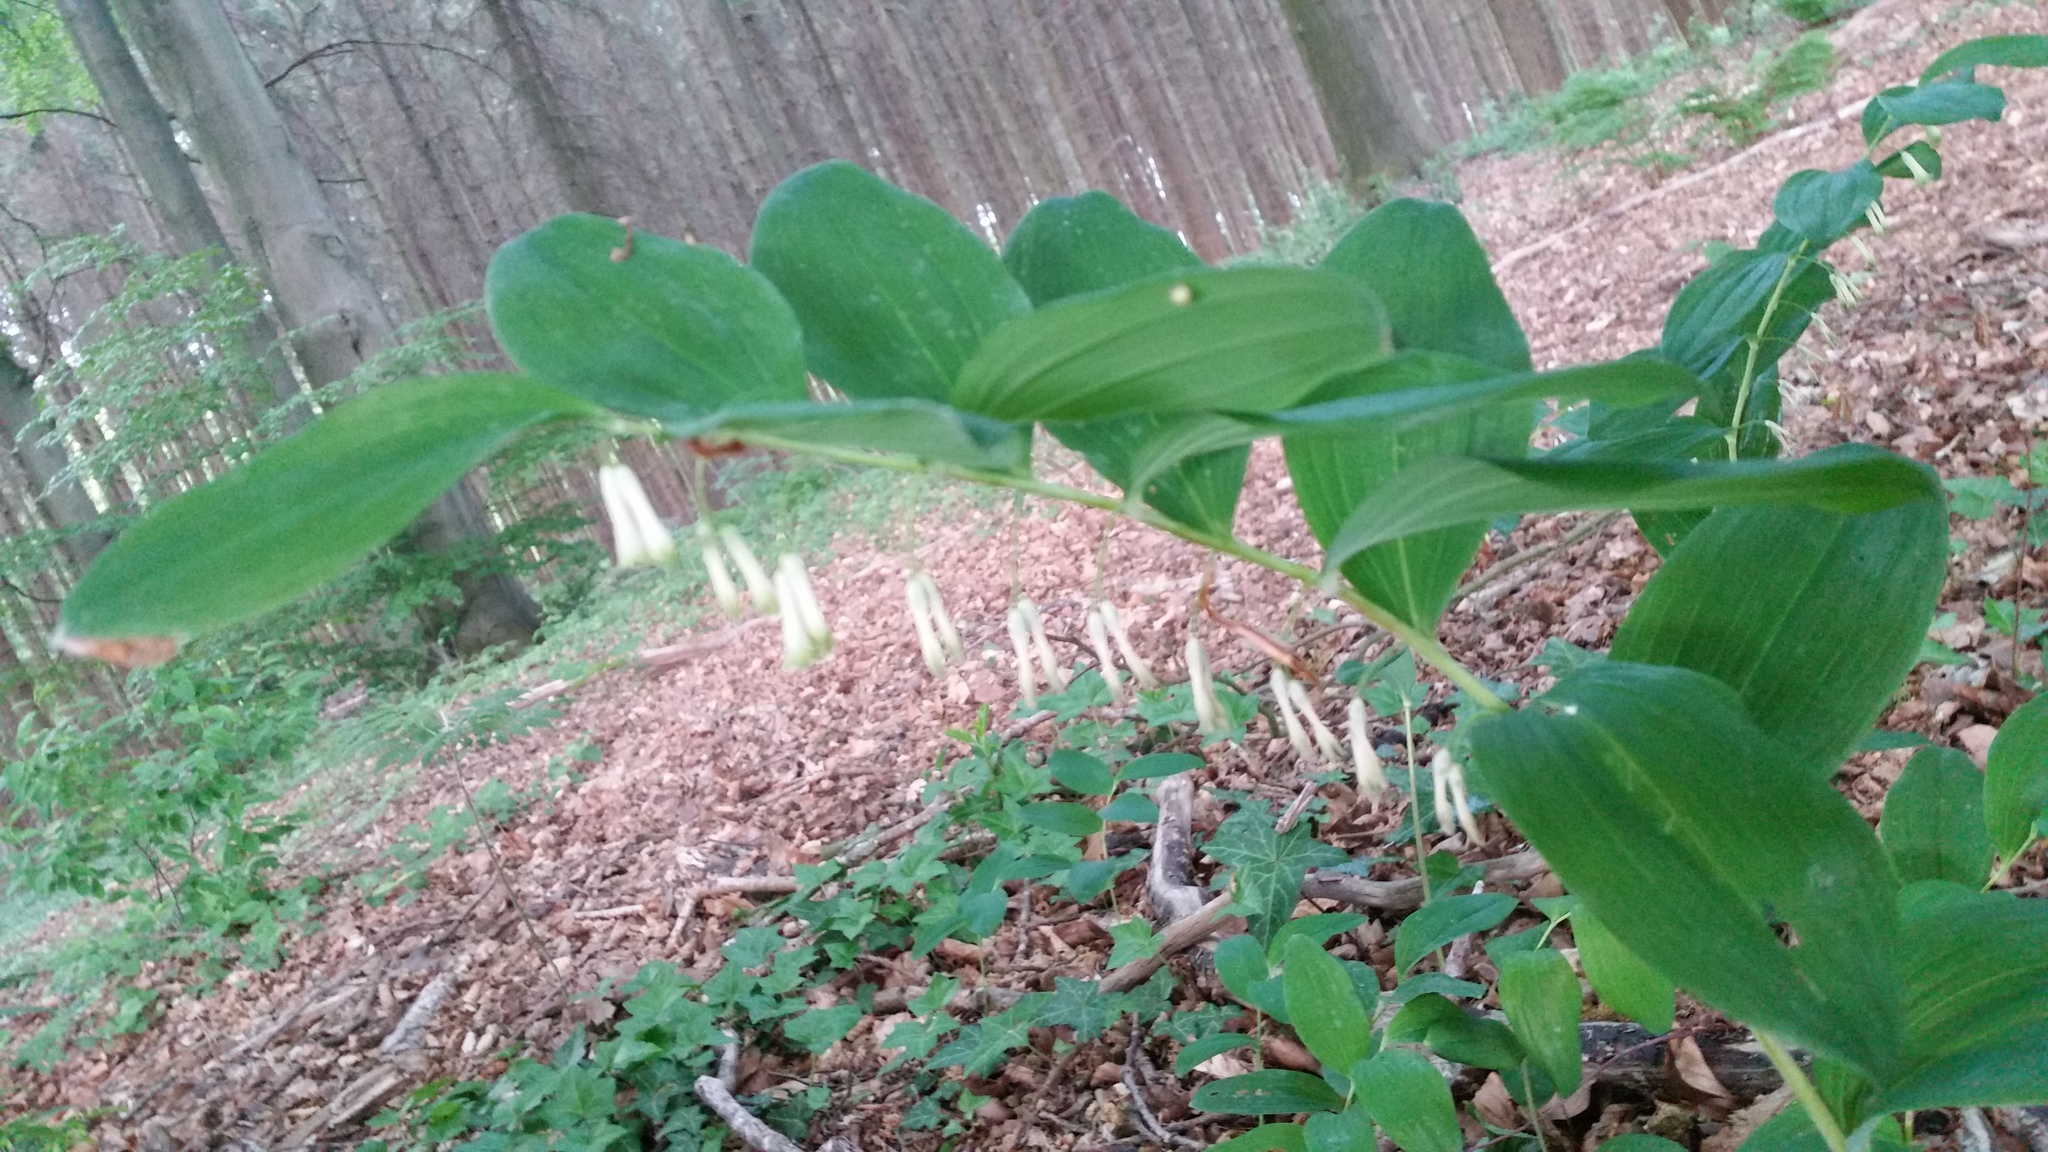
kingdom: Plantae
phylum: Tracheophyta
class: Liliopsida
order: Asparagales
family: Asparagaceae
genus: Polygonatum
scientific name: Polygonatum multiflorum
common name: Solomon's-seal
